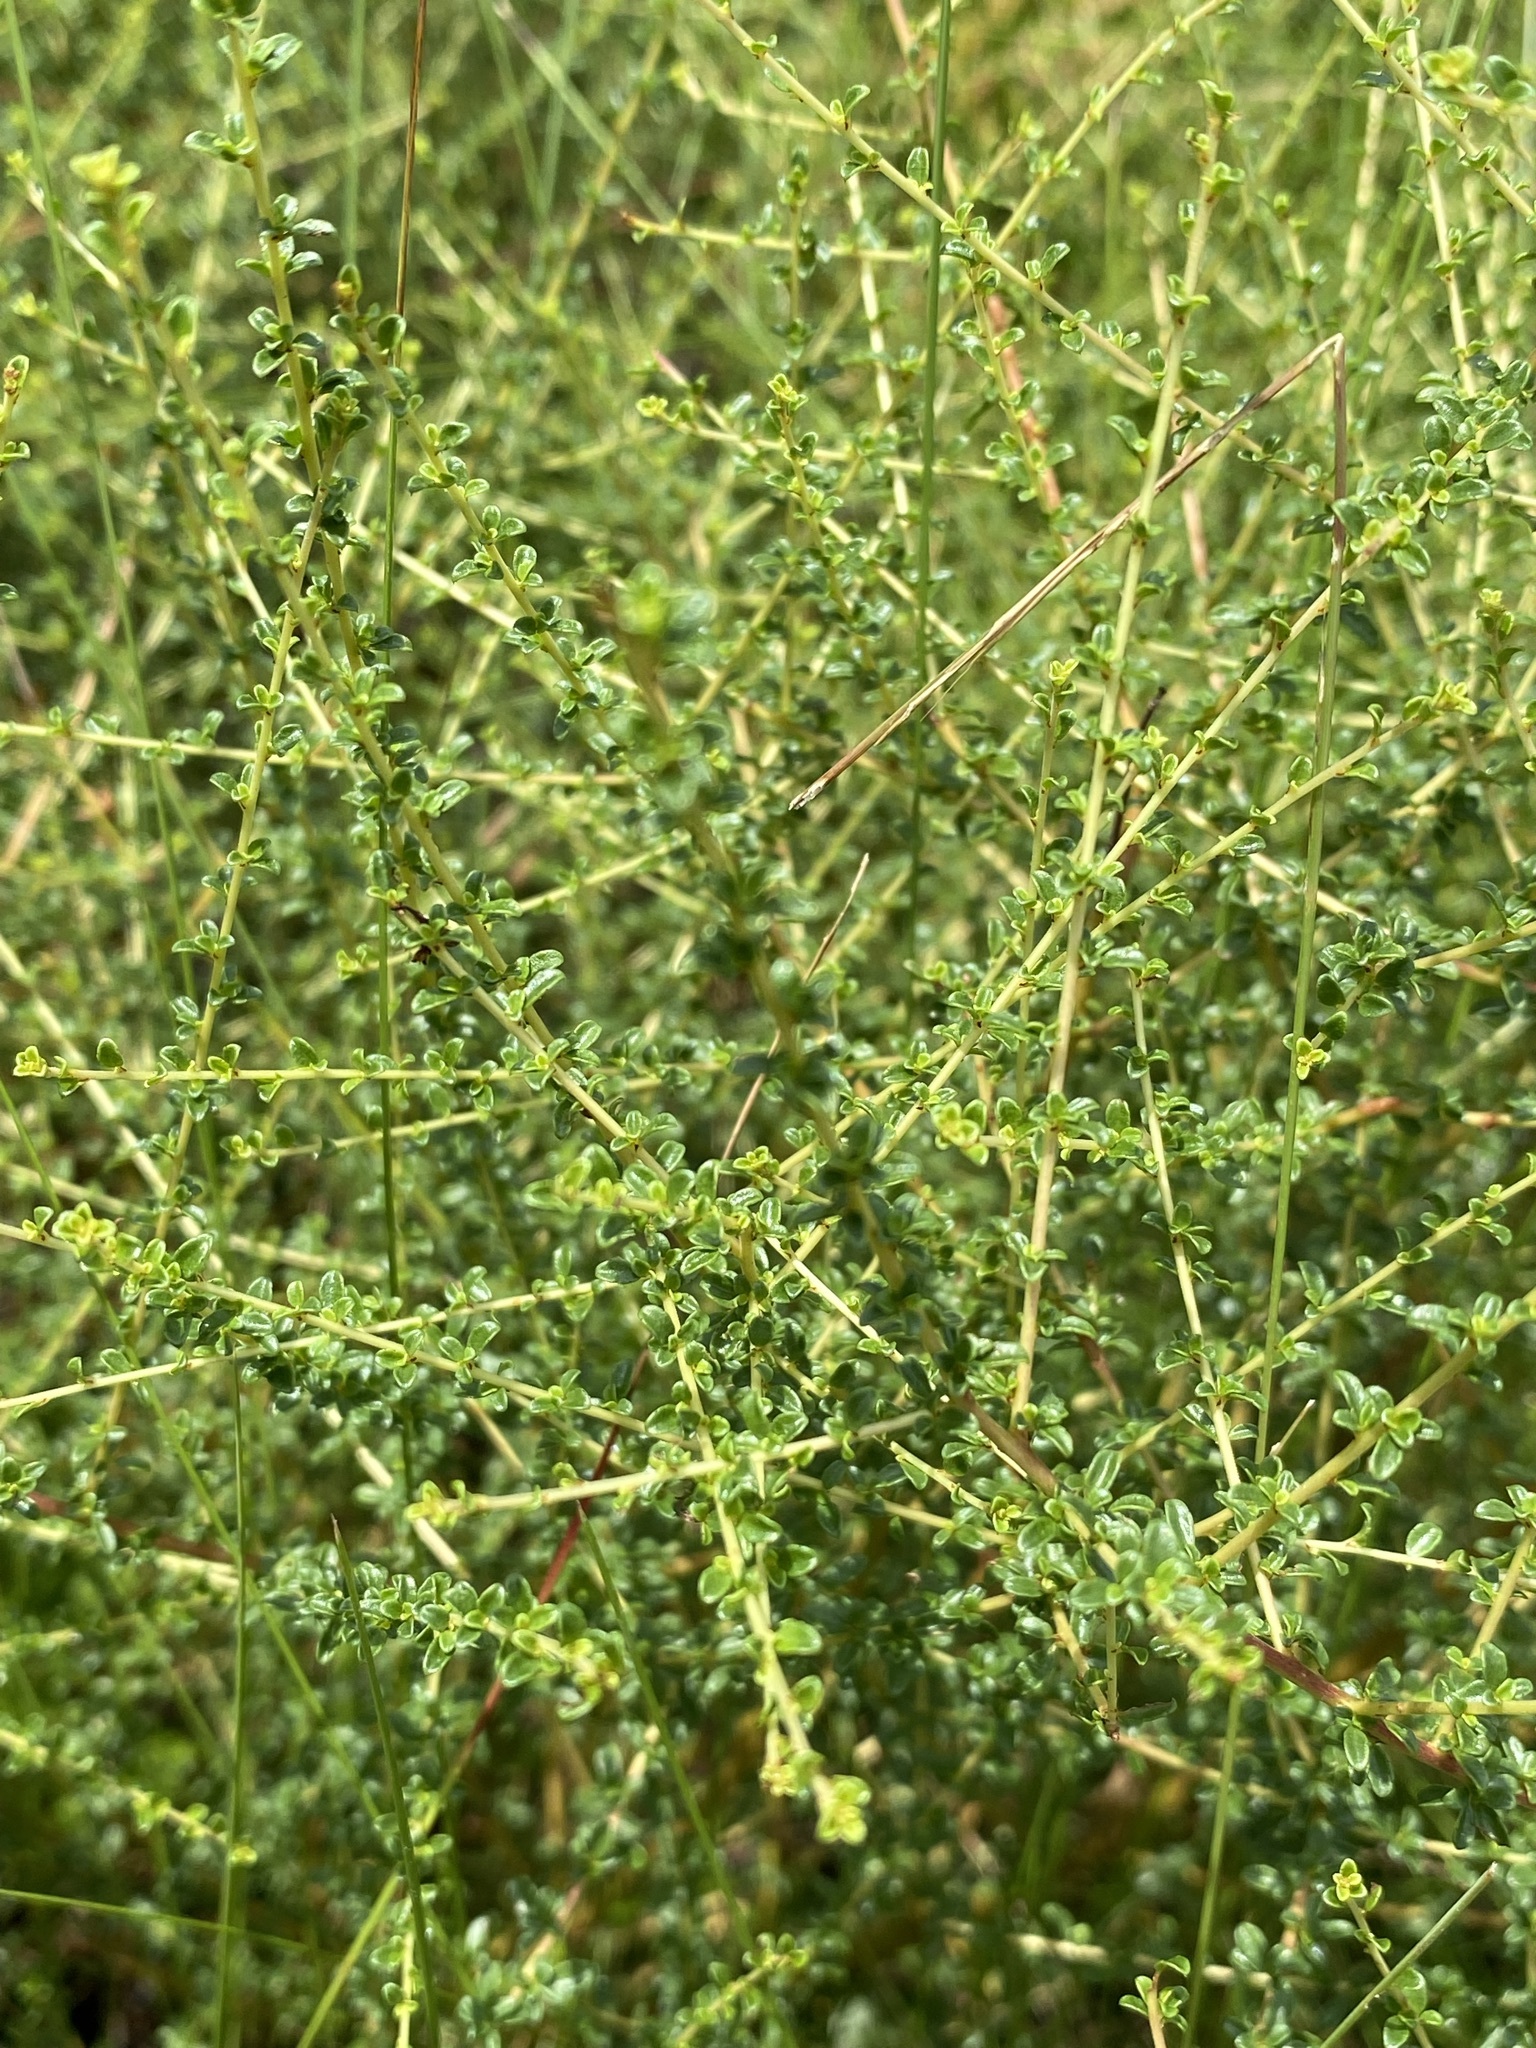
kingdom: Plantae
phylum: Tracheophyta
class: Magnoliopsida
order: Rosales
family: Rhamnaceae
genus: Ceanothus
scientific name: Ceanothus microphyllus
